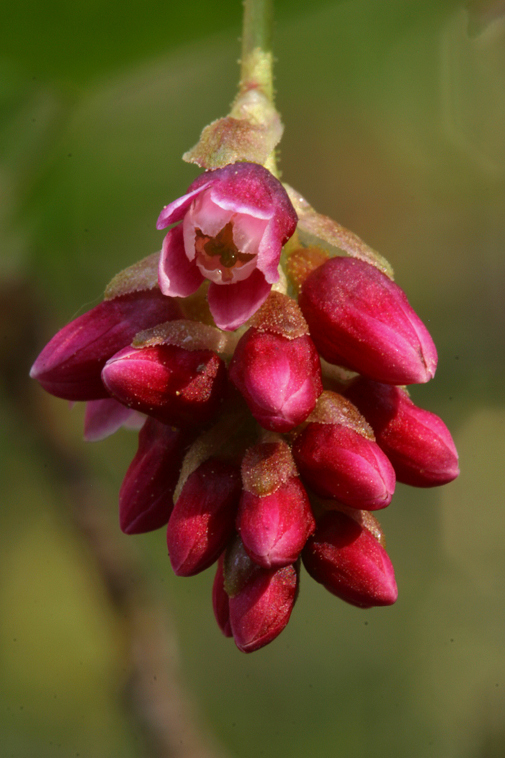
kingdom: Plantae
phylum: Tracheophyta
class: Magnoliopsida
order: Saxifragales
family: Grossulariaceae
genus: Ribes
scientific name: Ribes nevadense
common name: Mountain pink currant
